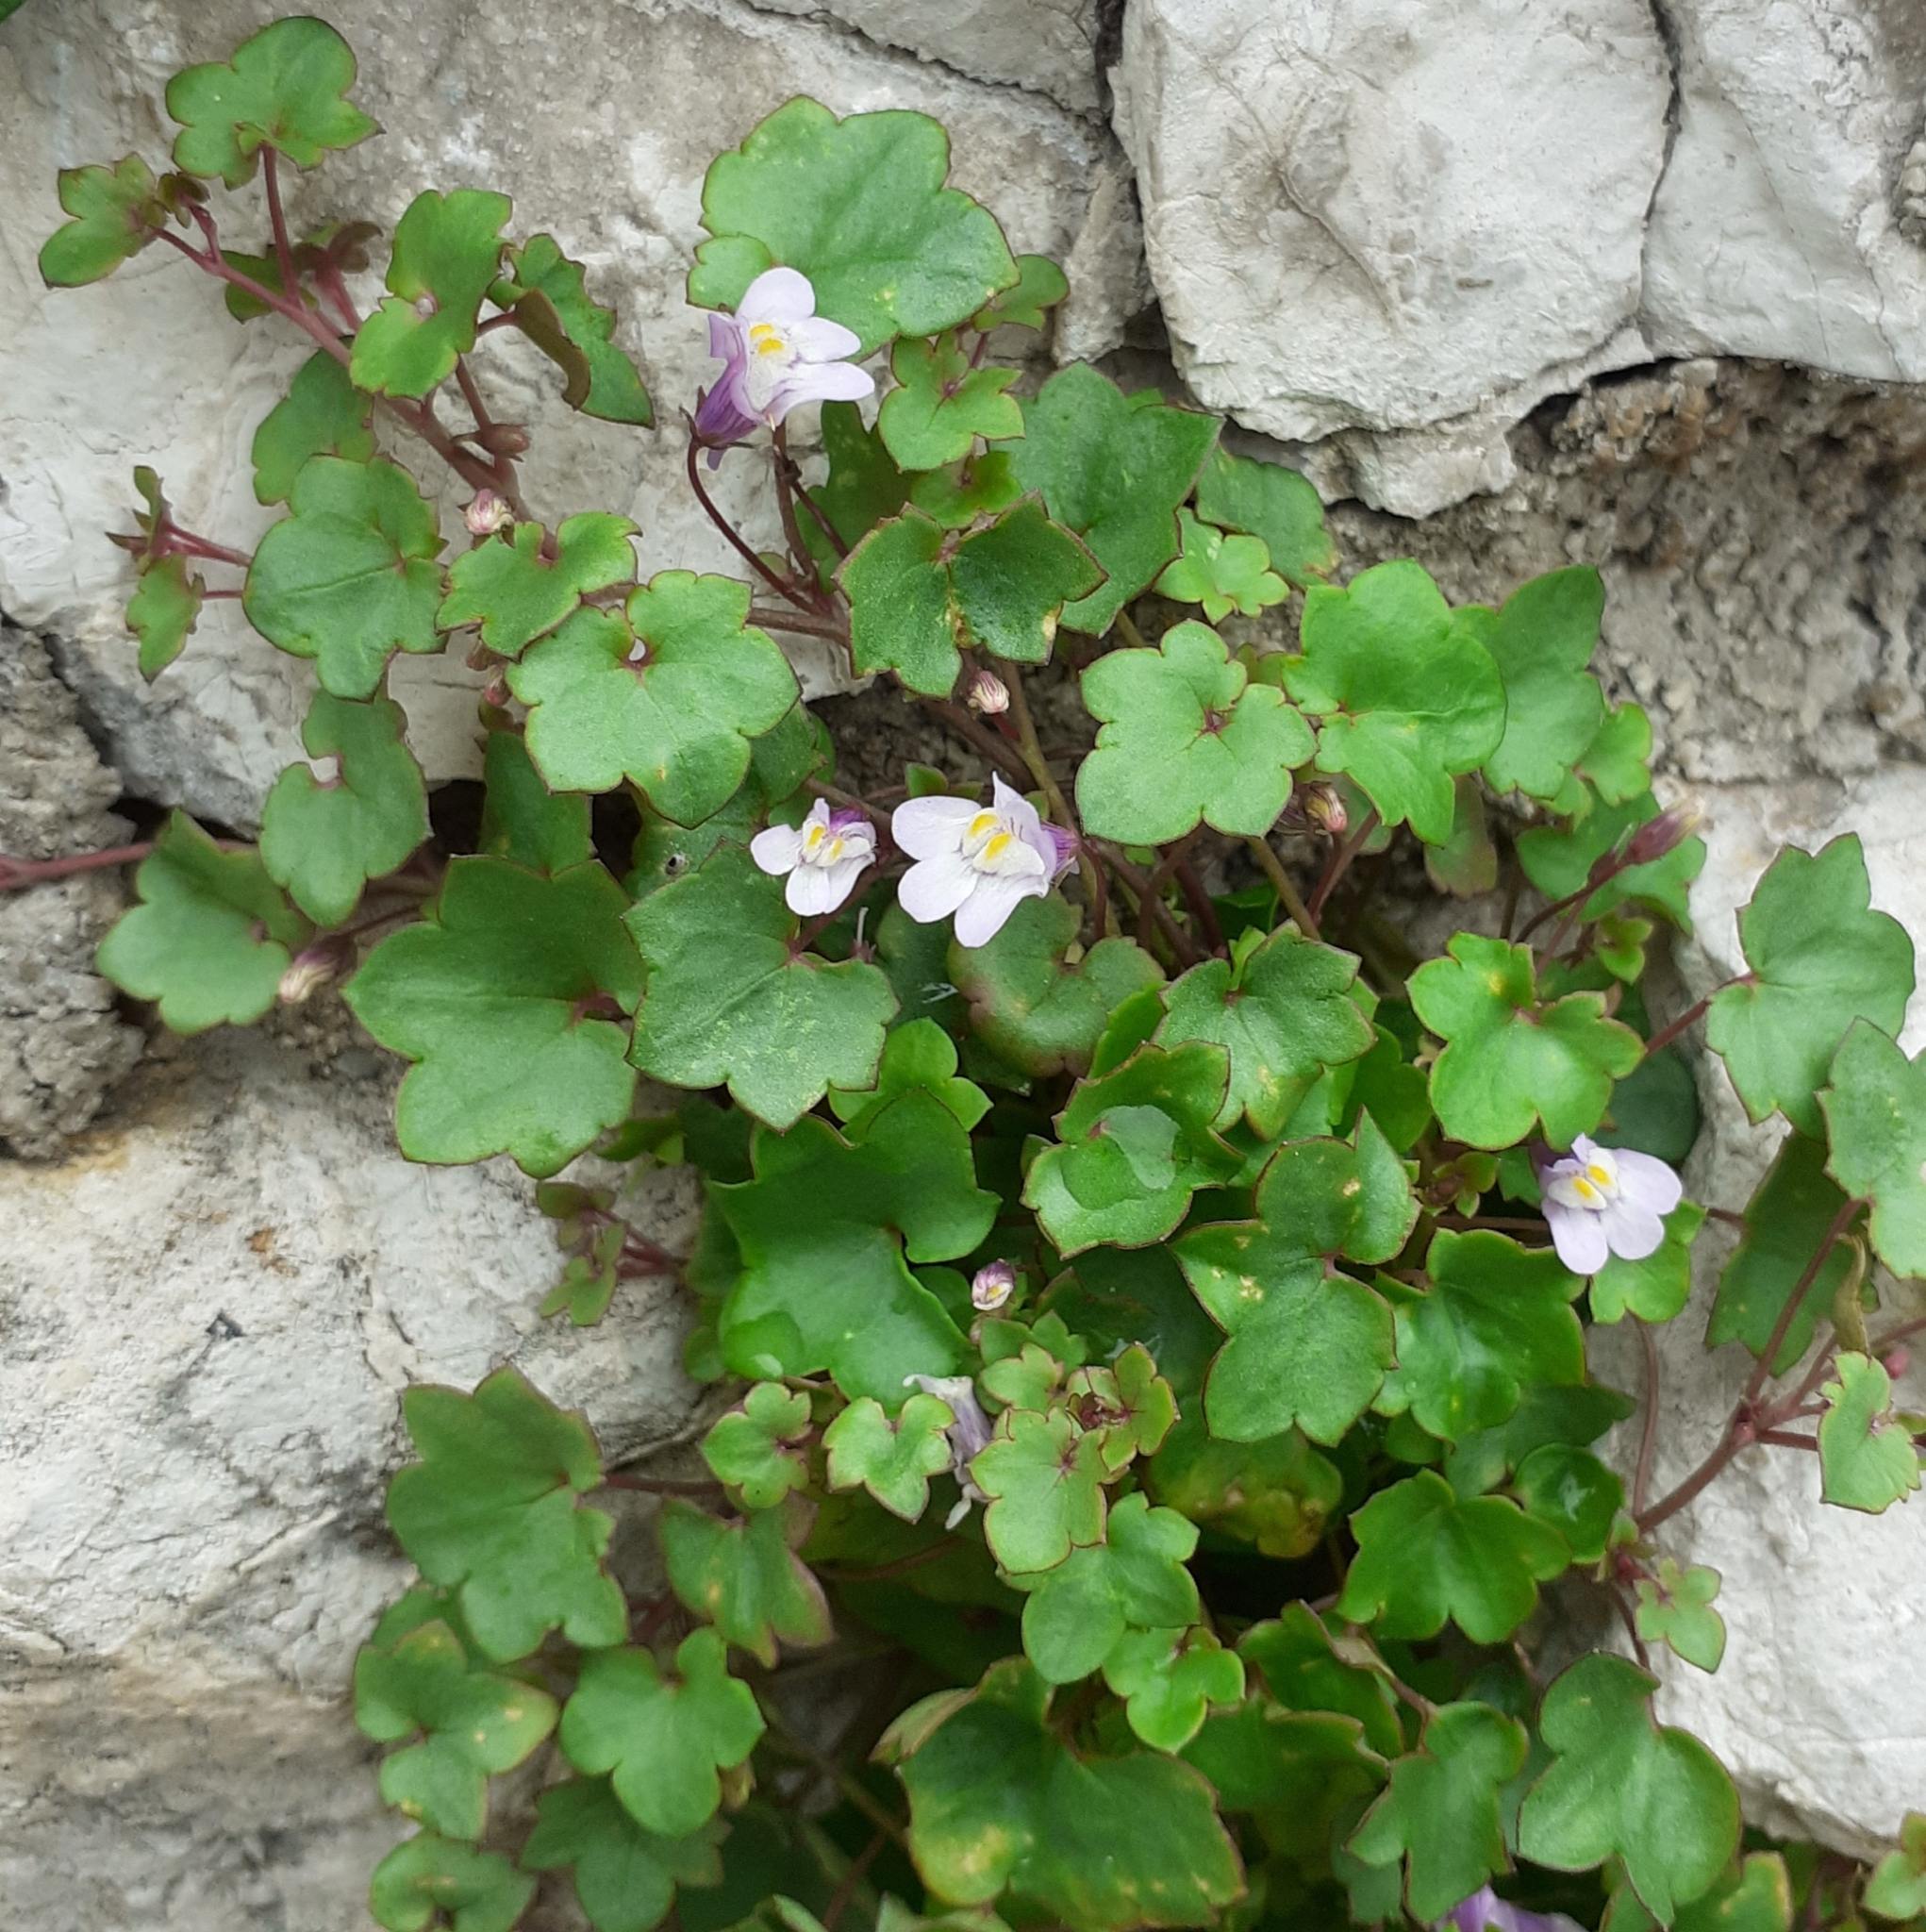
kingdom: Plantae
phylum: Tracheophyta
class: Magnoliopsida
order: Lamiales
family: Plantaginaceae
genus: Cymbalaria
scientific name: Cymbalaria muralis
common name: Ivy-leaved toadflax
